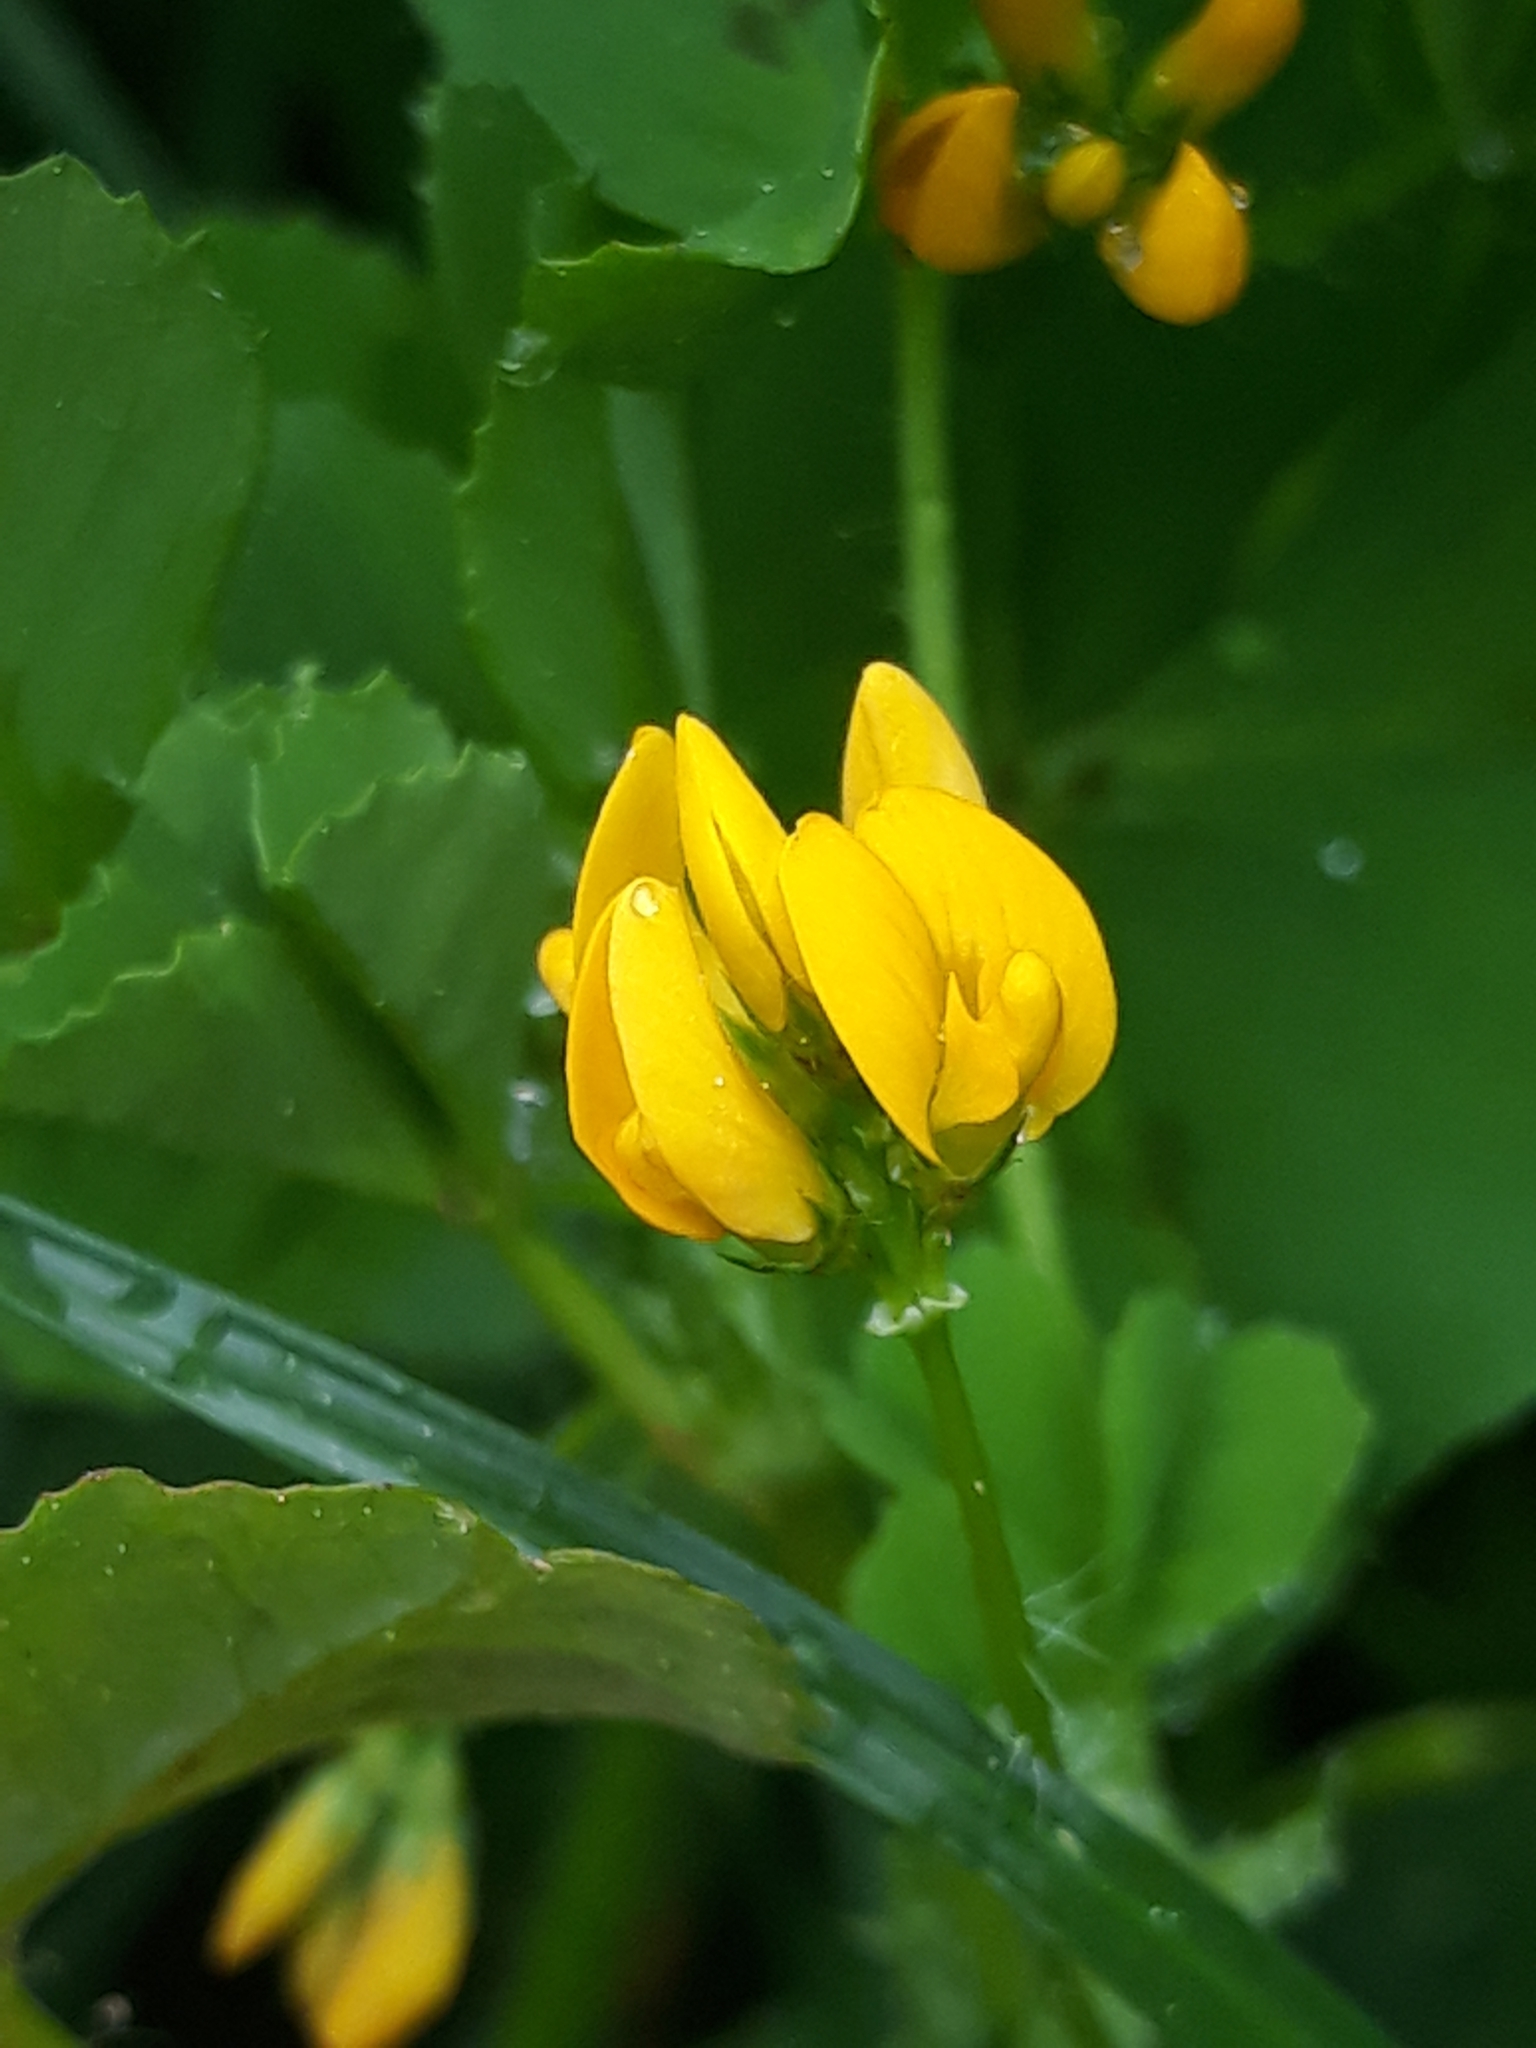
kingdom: Plantae
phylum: Tracheophyta
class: Magnoliopsida
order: Fabales
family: Fabaceae
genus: Medicago
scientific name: Medicago arabica
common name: Spotted medick
